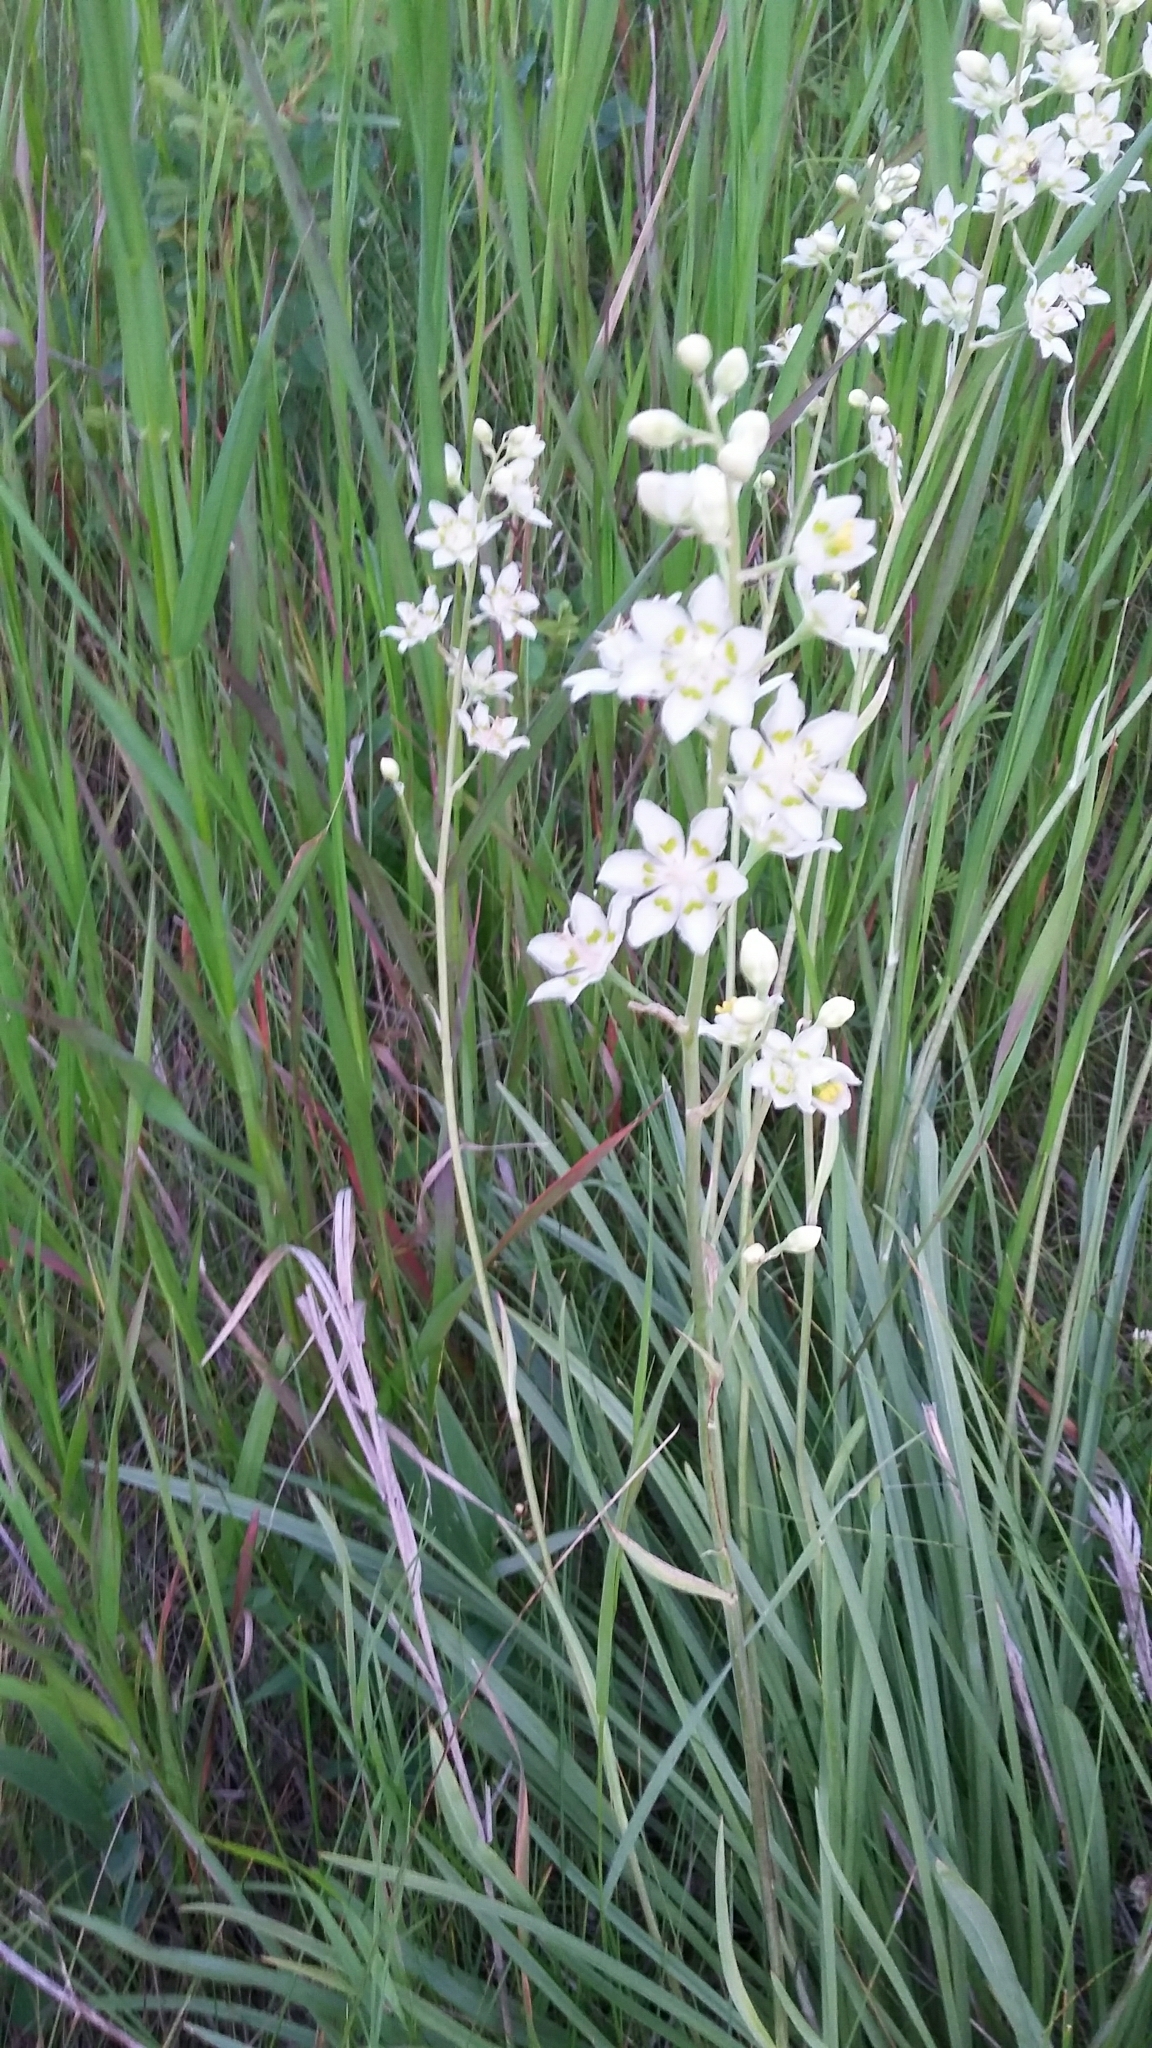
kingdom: Plantae
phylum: Tracheophyta
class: Liliopsida
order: Liliales
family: Melanthiaceae
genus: Anticlea
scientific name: Anticlea elegans
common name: Mountain death camas
